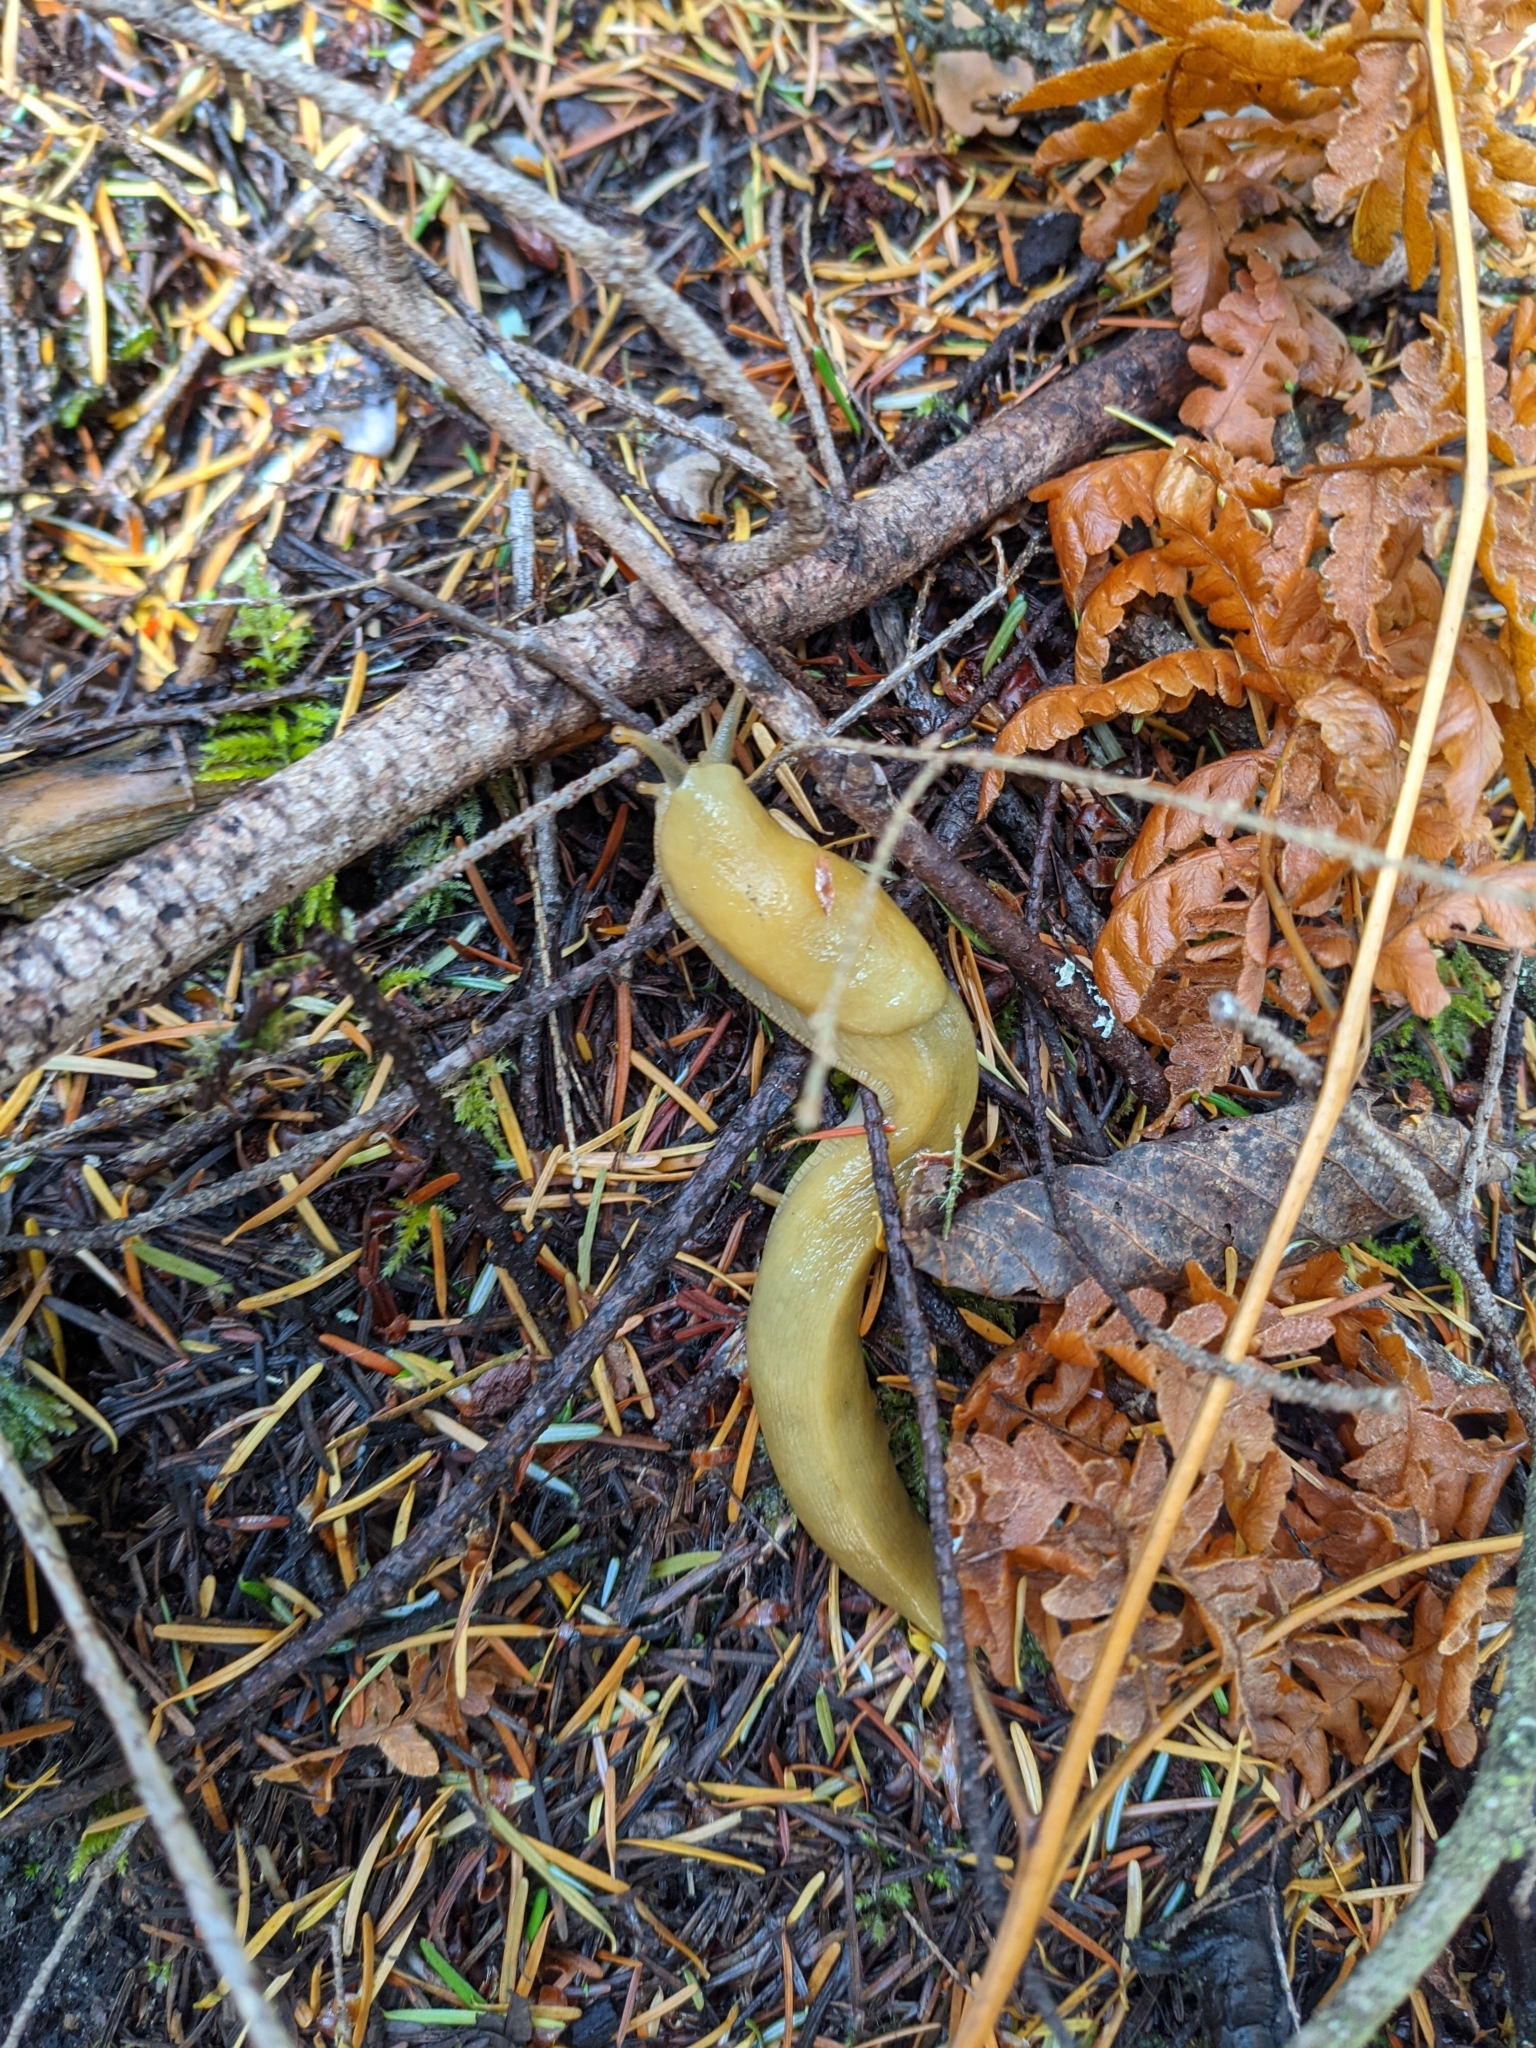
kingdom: Animalia
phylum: Mollusca
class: Gastropoda
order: Stylommatophora
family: Ariolimacidae
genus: Ariolimax
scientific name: Ariolimax columbianus
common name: Pacific banana slug
